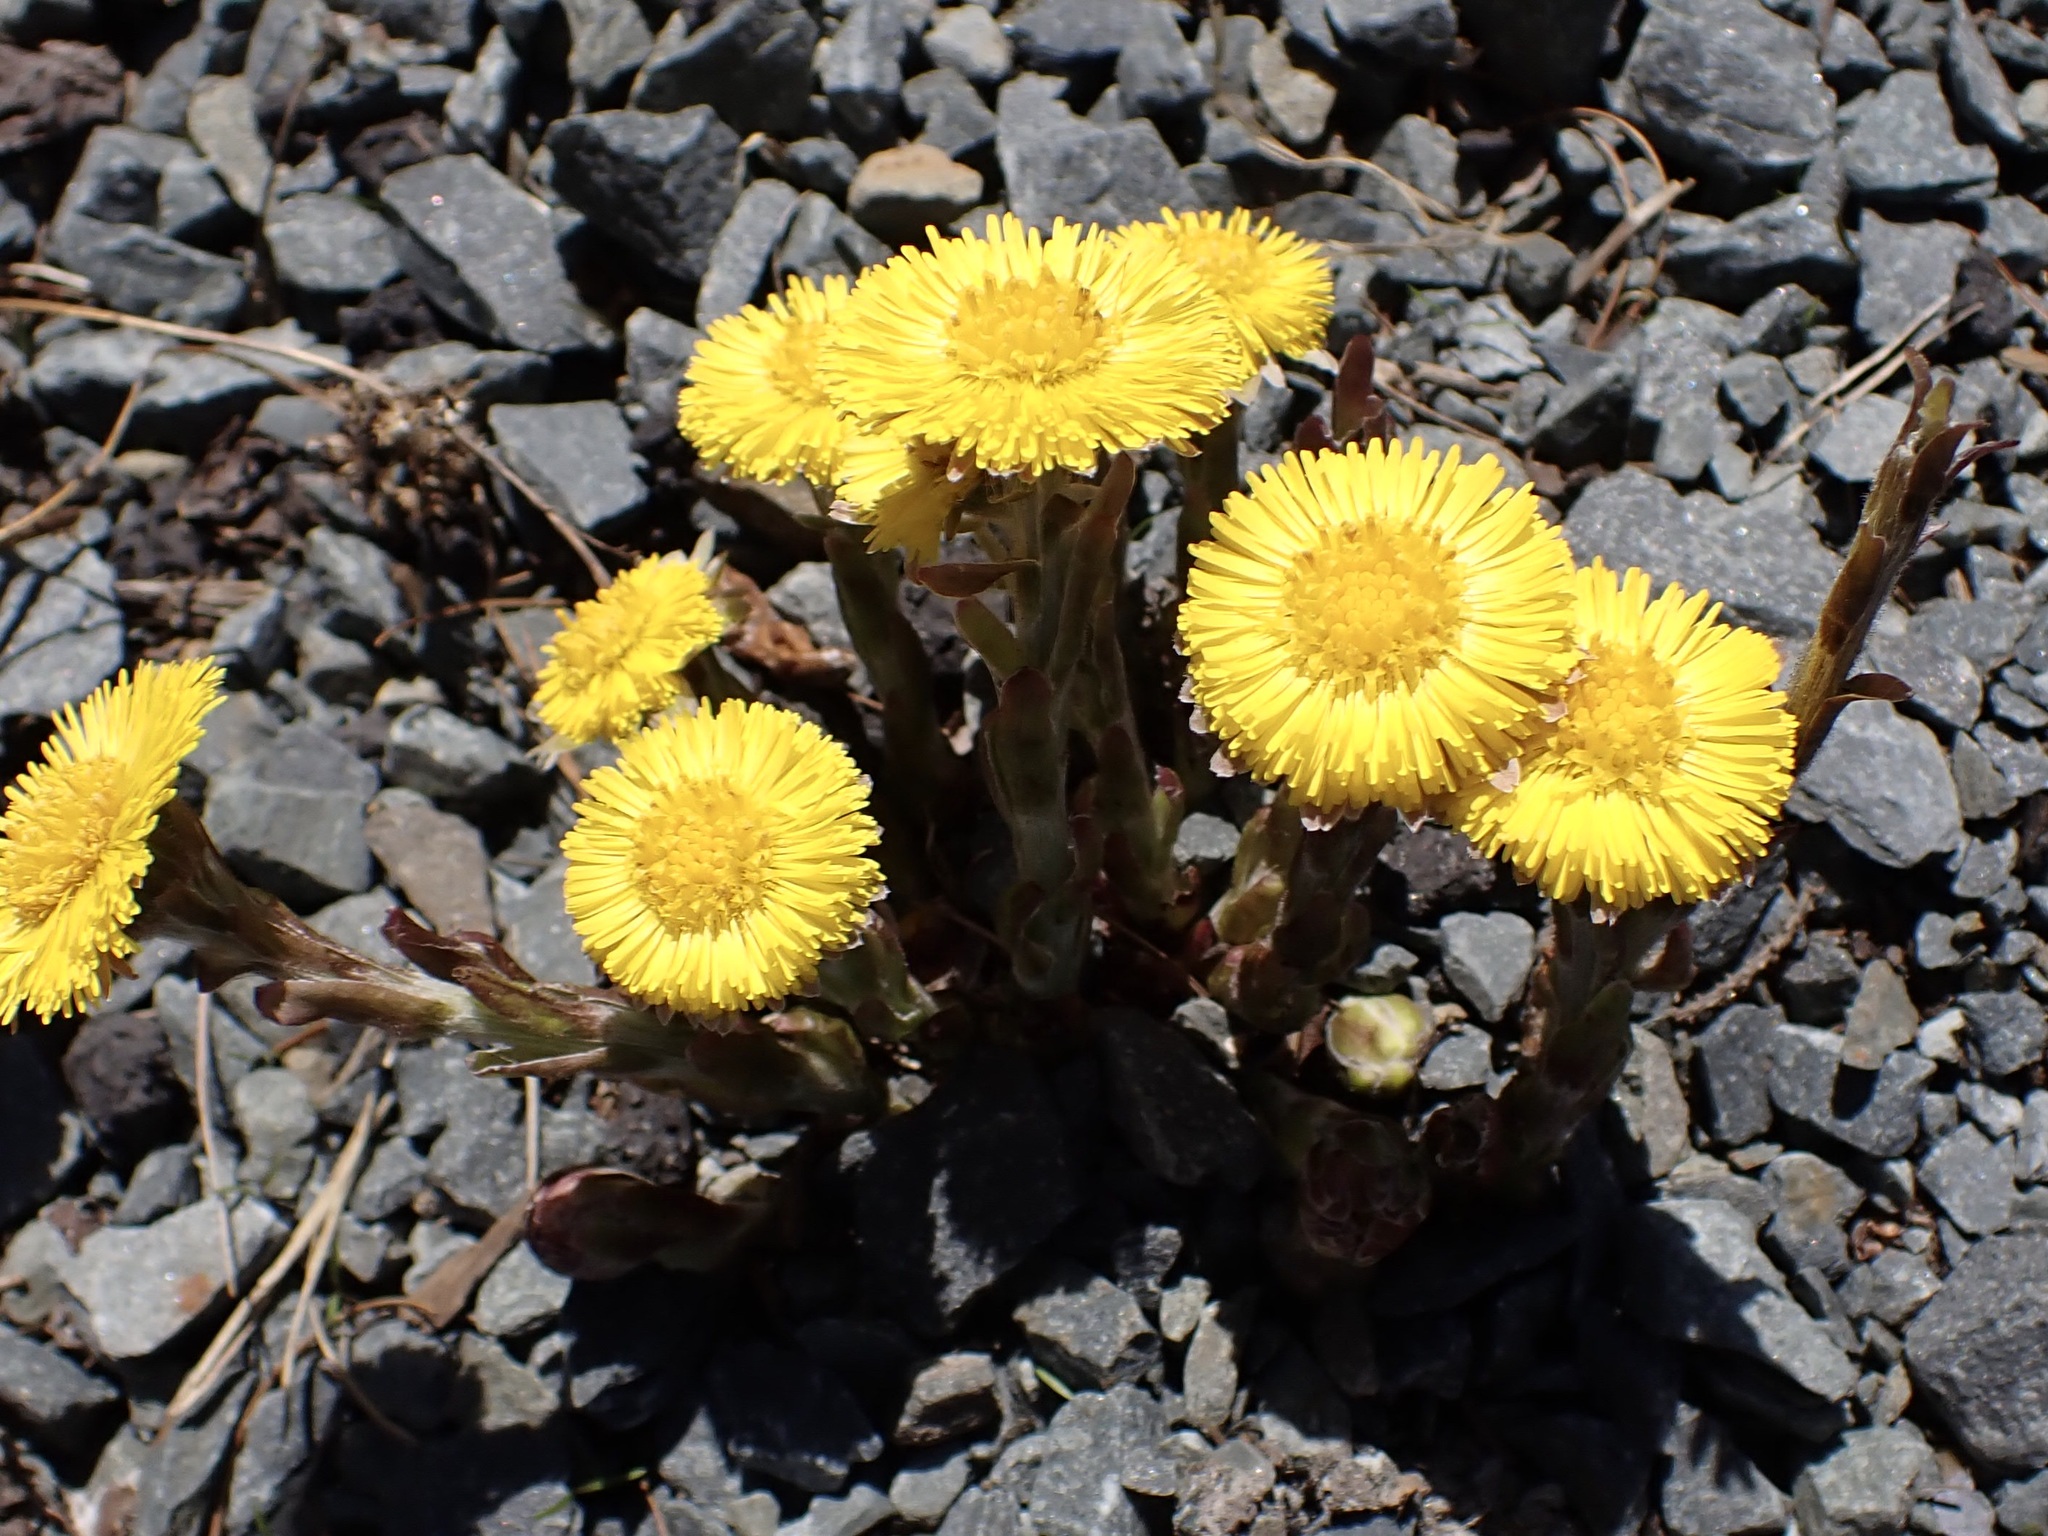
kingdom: Plantae
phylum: Tracheophyta
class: Magnoliopsida
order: Asterales
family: Asteraceae
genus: Tussilago
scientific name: Tussilago farfara
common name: Coltsfoot
